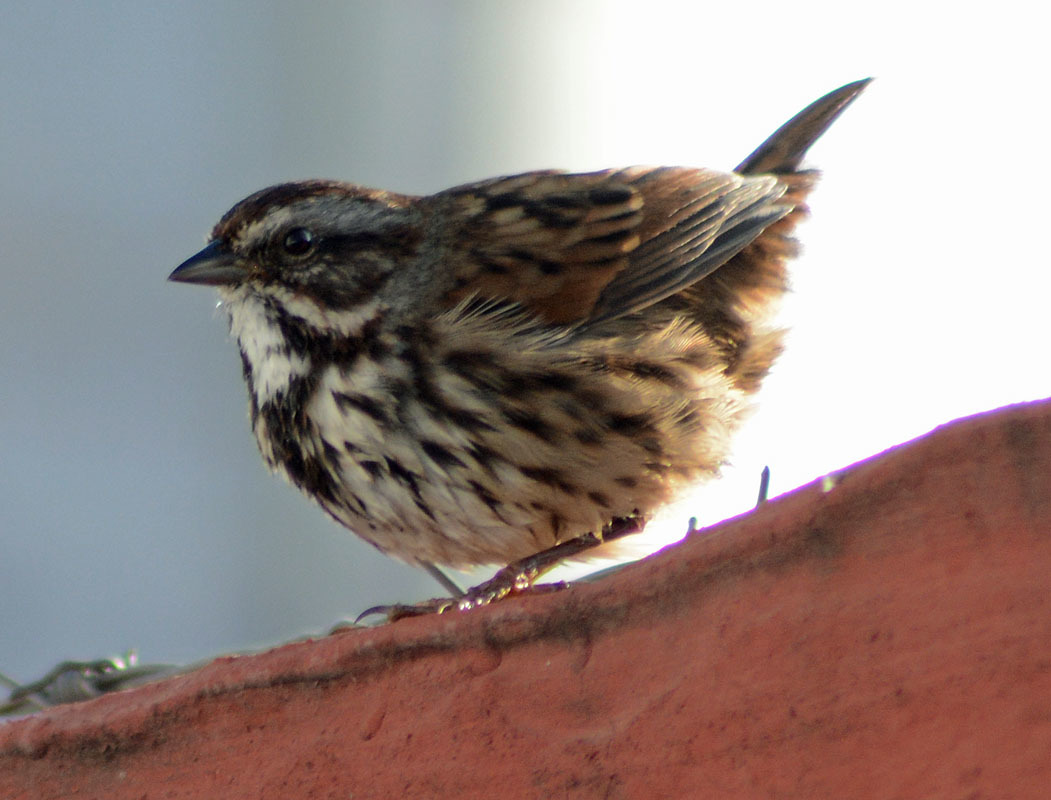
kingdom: Animalia
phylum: Chordata
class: Aves
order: Passeriformes
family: Passerellidae
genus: Melospiza
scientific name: Melospiza melodia
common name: Song sparrow
